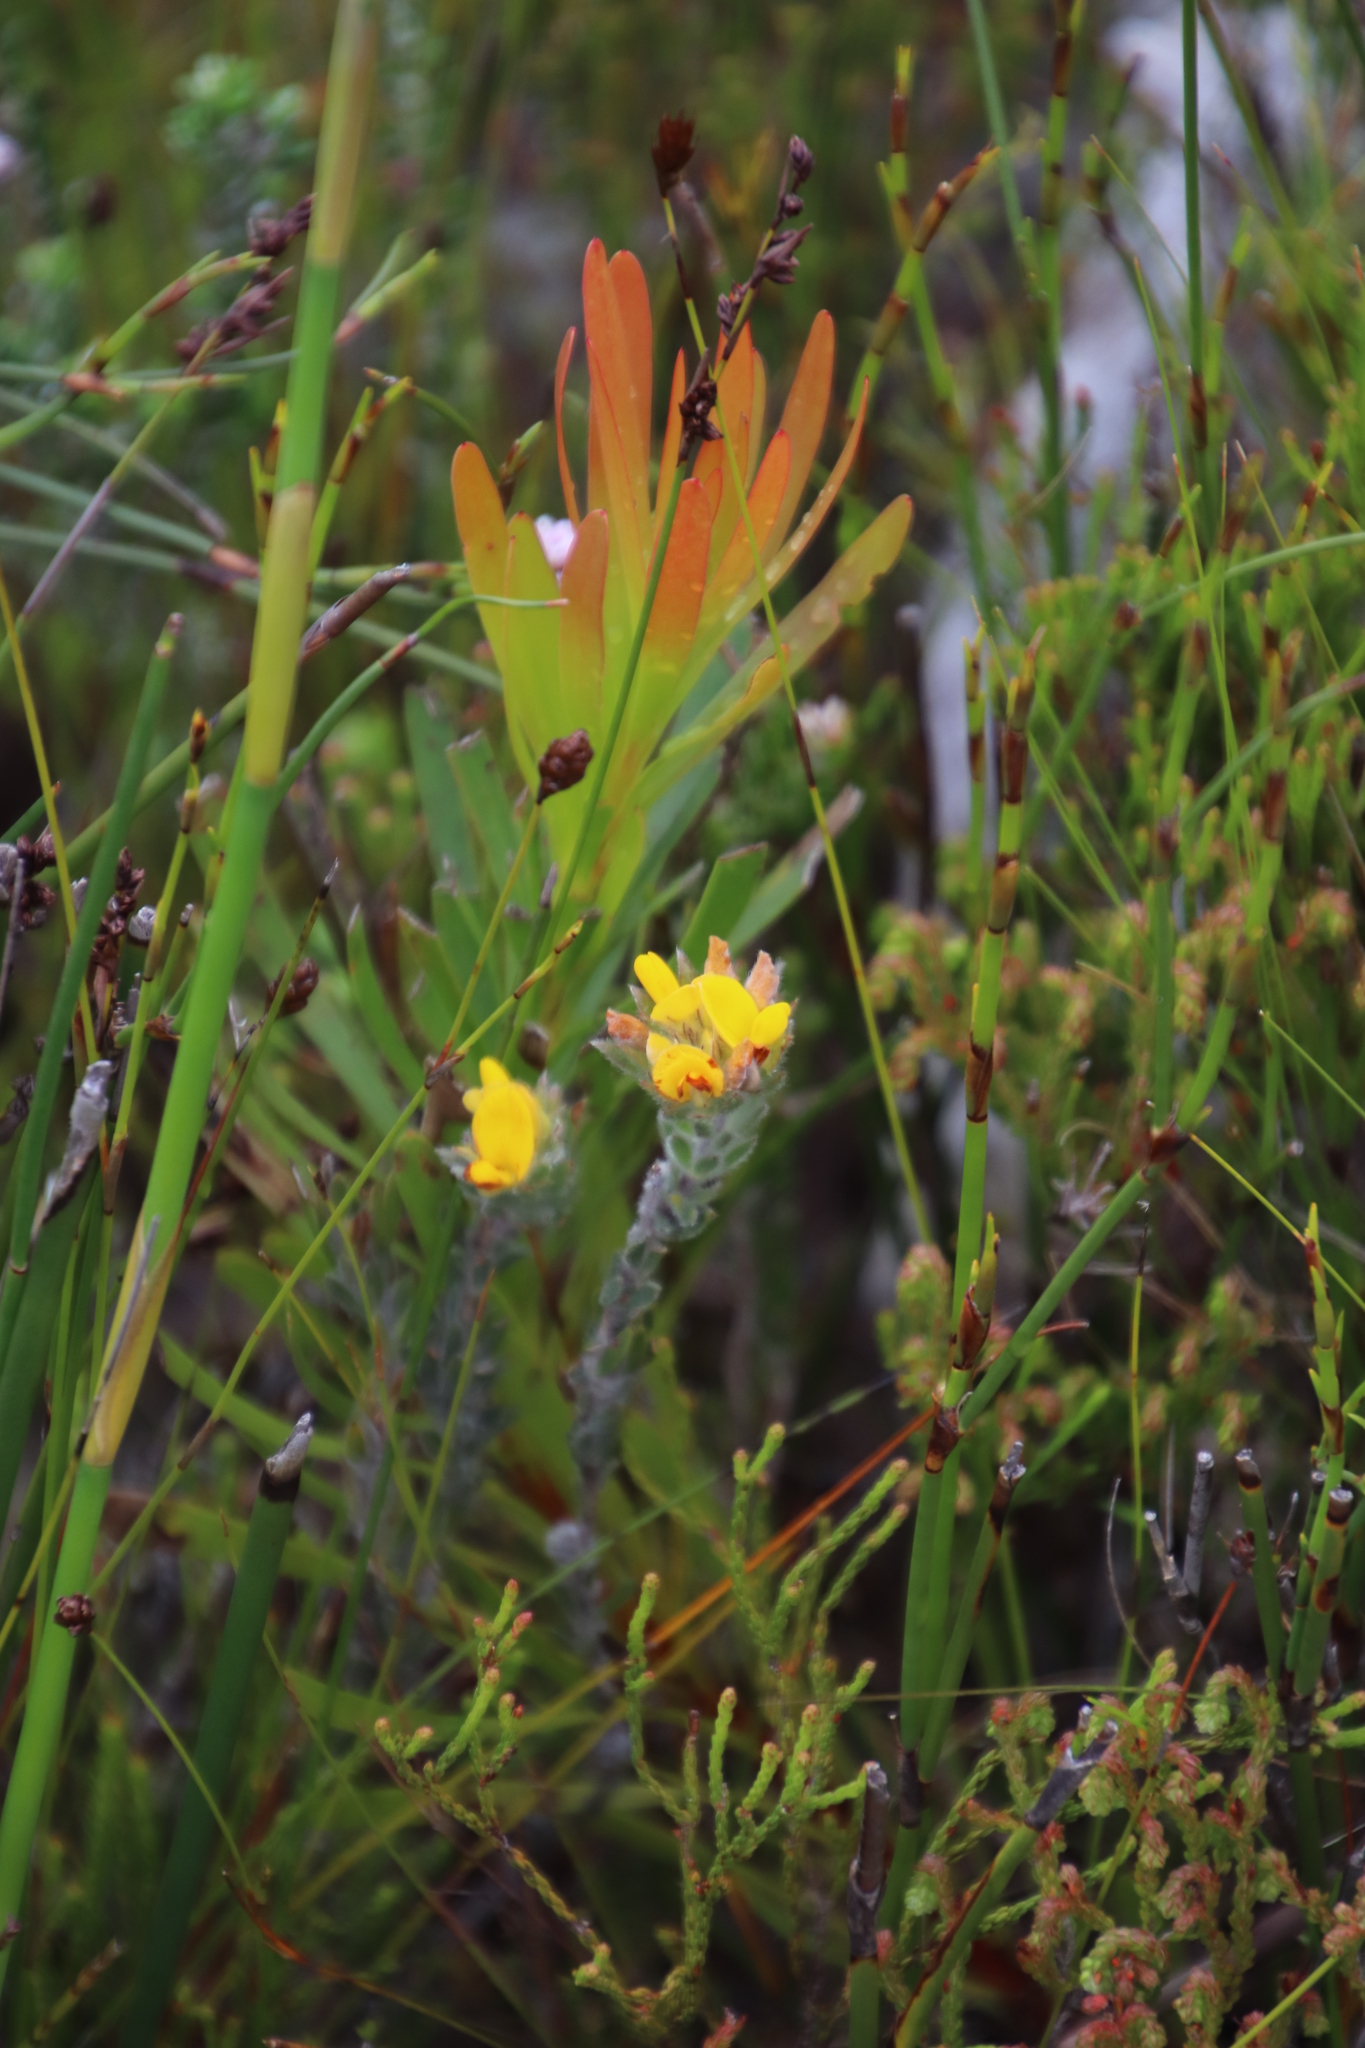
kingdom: Plantae
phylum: Tracheophyta
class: Magnoliopsida
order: Fabales
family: Fabaceae
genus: Aspalathus
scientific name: Aspalathus aspalathoides
